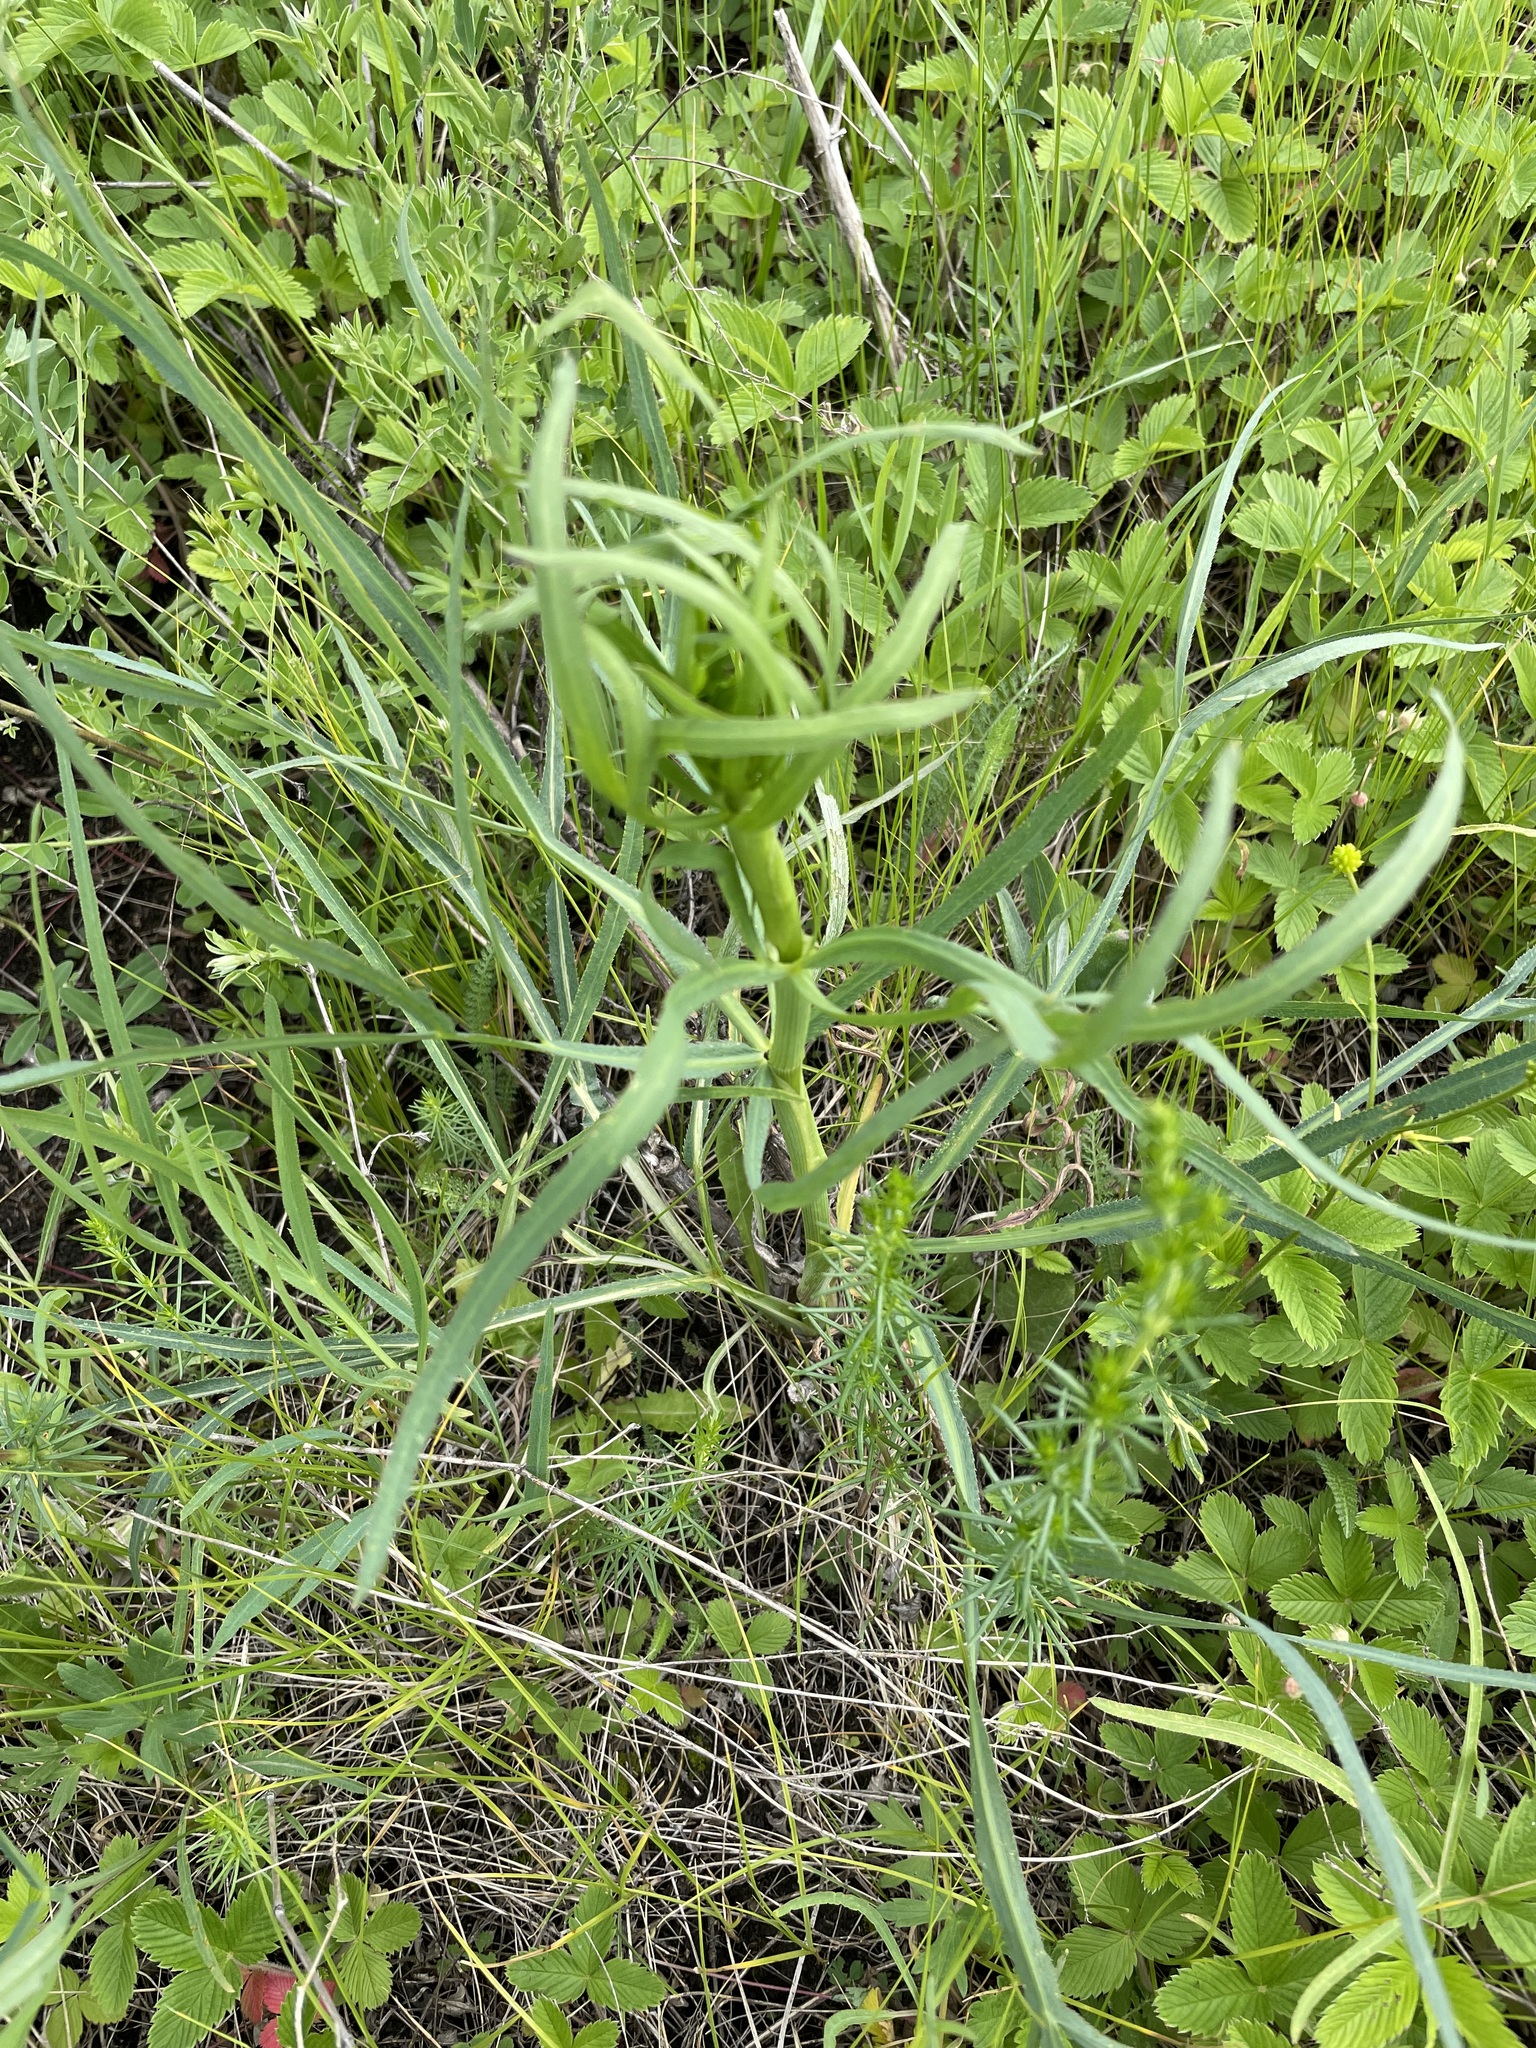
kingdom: Plantae
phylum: Tracheophyta
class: Magnoliopsida
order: Apiales
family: Apiaceae
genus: Falcaria
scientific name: Falcaria vulgaris
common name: Longleaf
